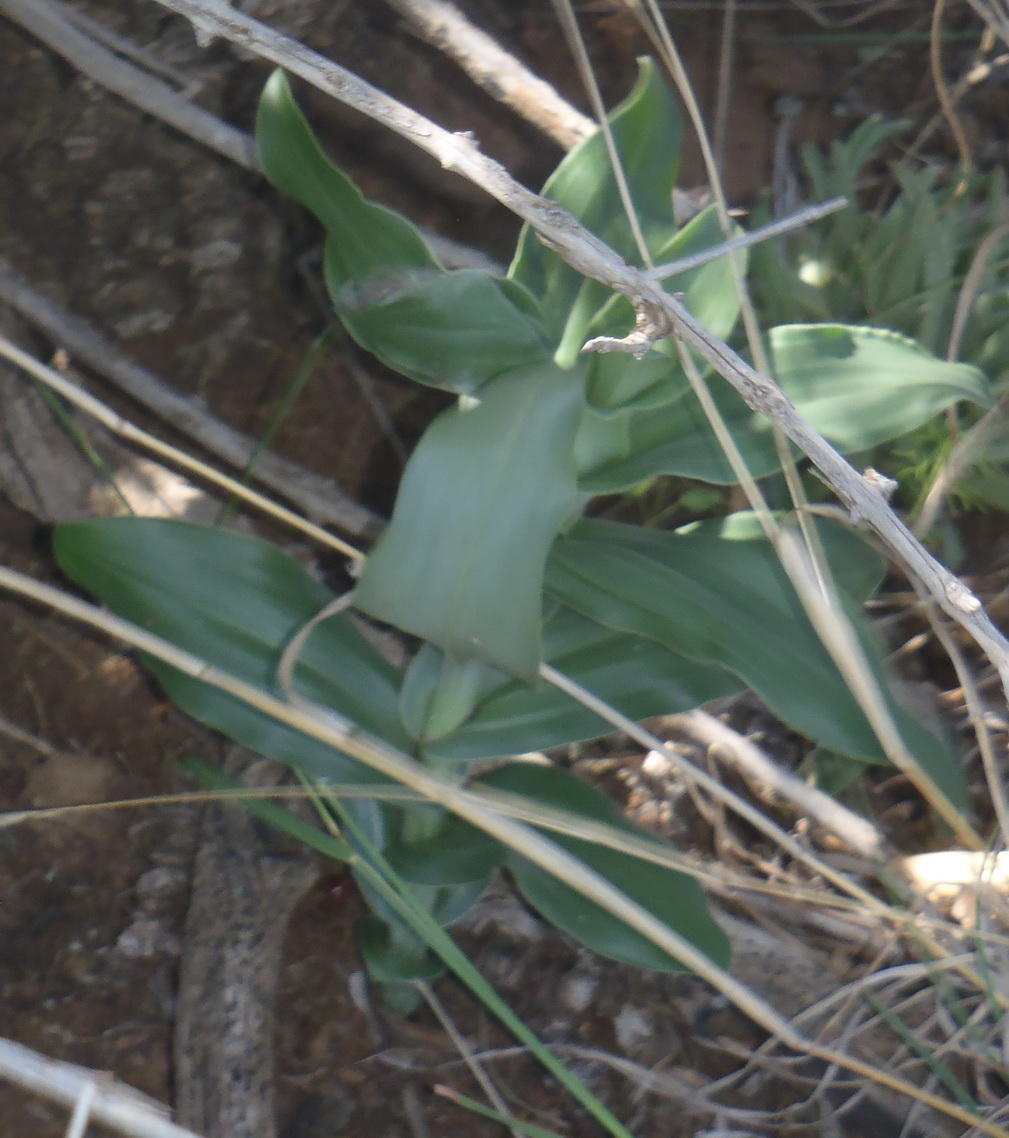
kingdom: Plantae
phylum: Tracheophyta
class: Liliopsida
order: Asparagales
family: Orchidaceae
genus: Bonatea
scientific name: Bonatea antennifera
